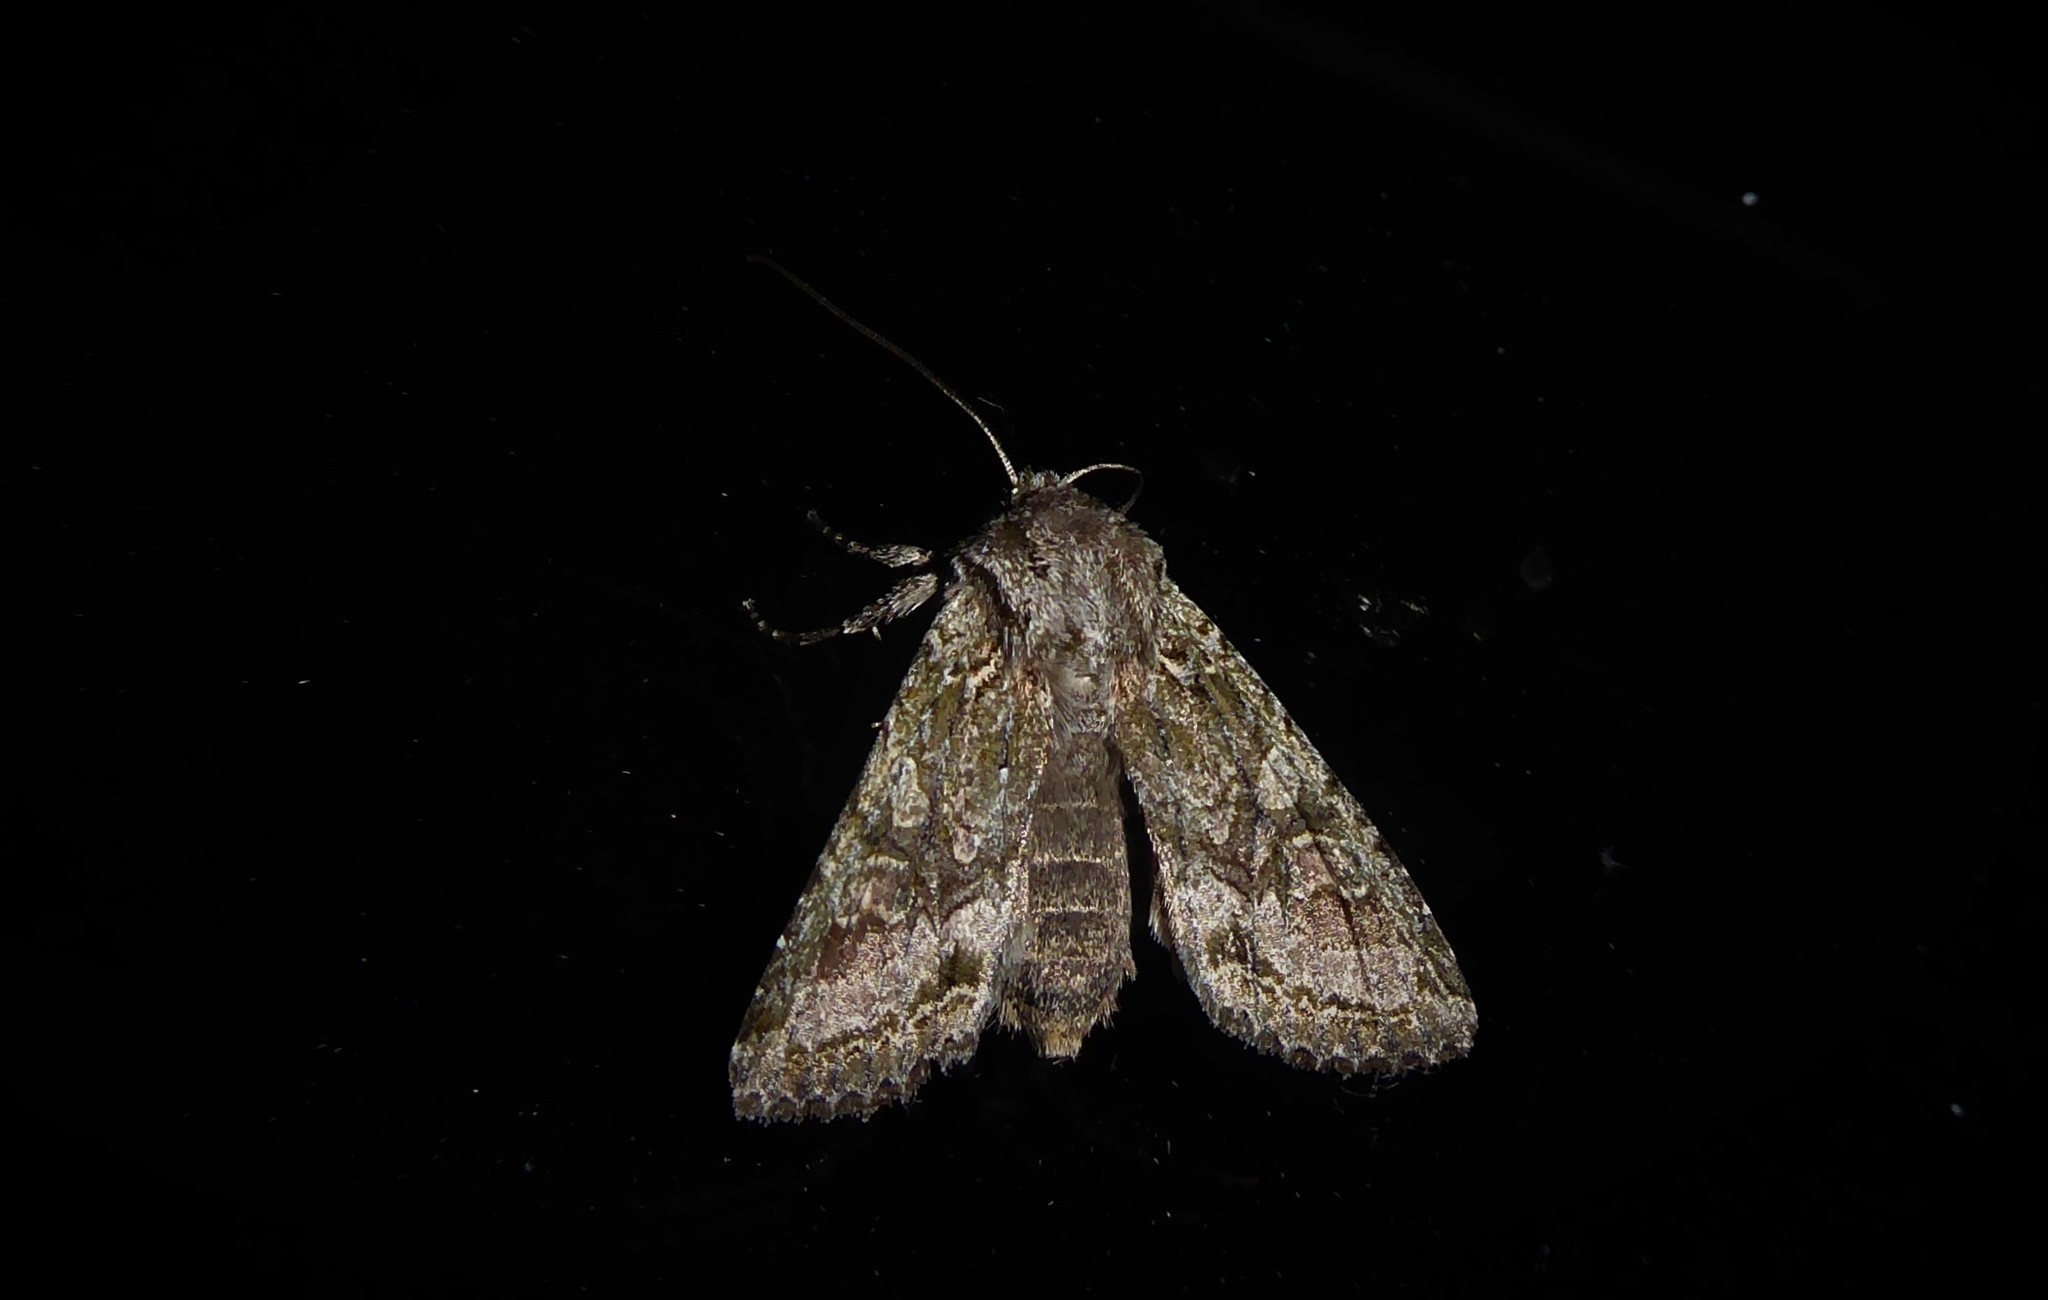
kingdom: Animalia
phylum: Arthropoda
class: Insecta
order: Lepidoptera
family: Noctuidae
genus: Ichneutica
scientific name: Ichneutica mutans
